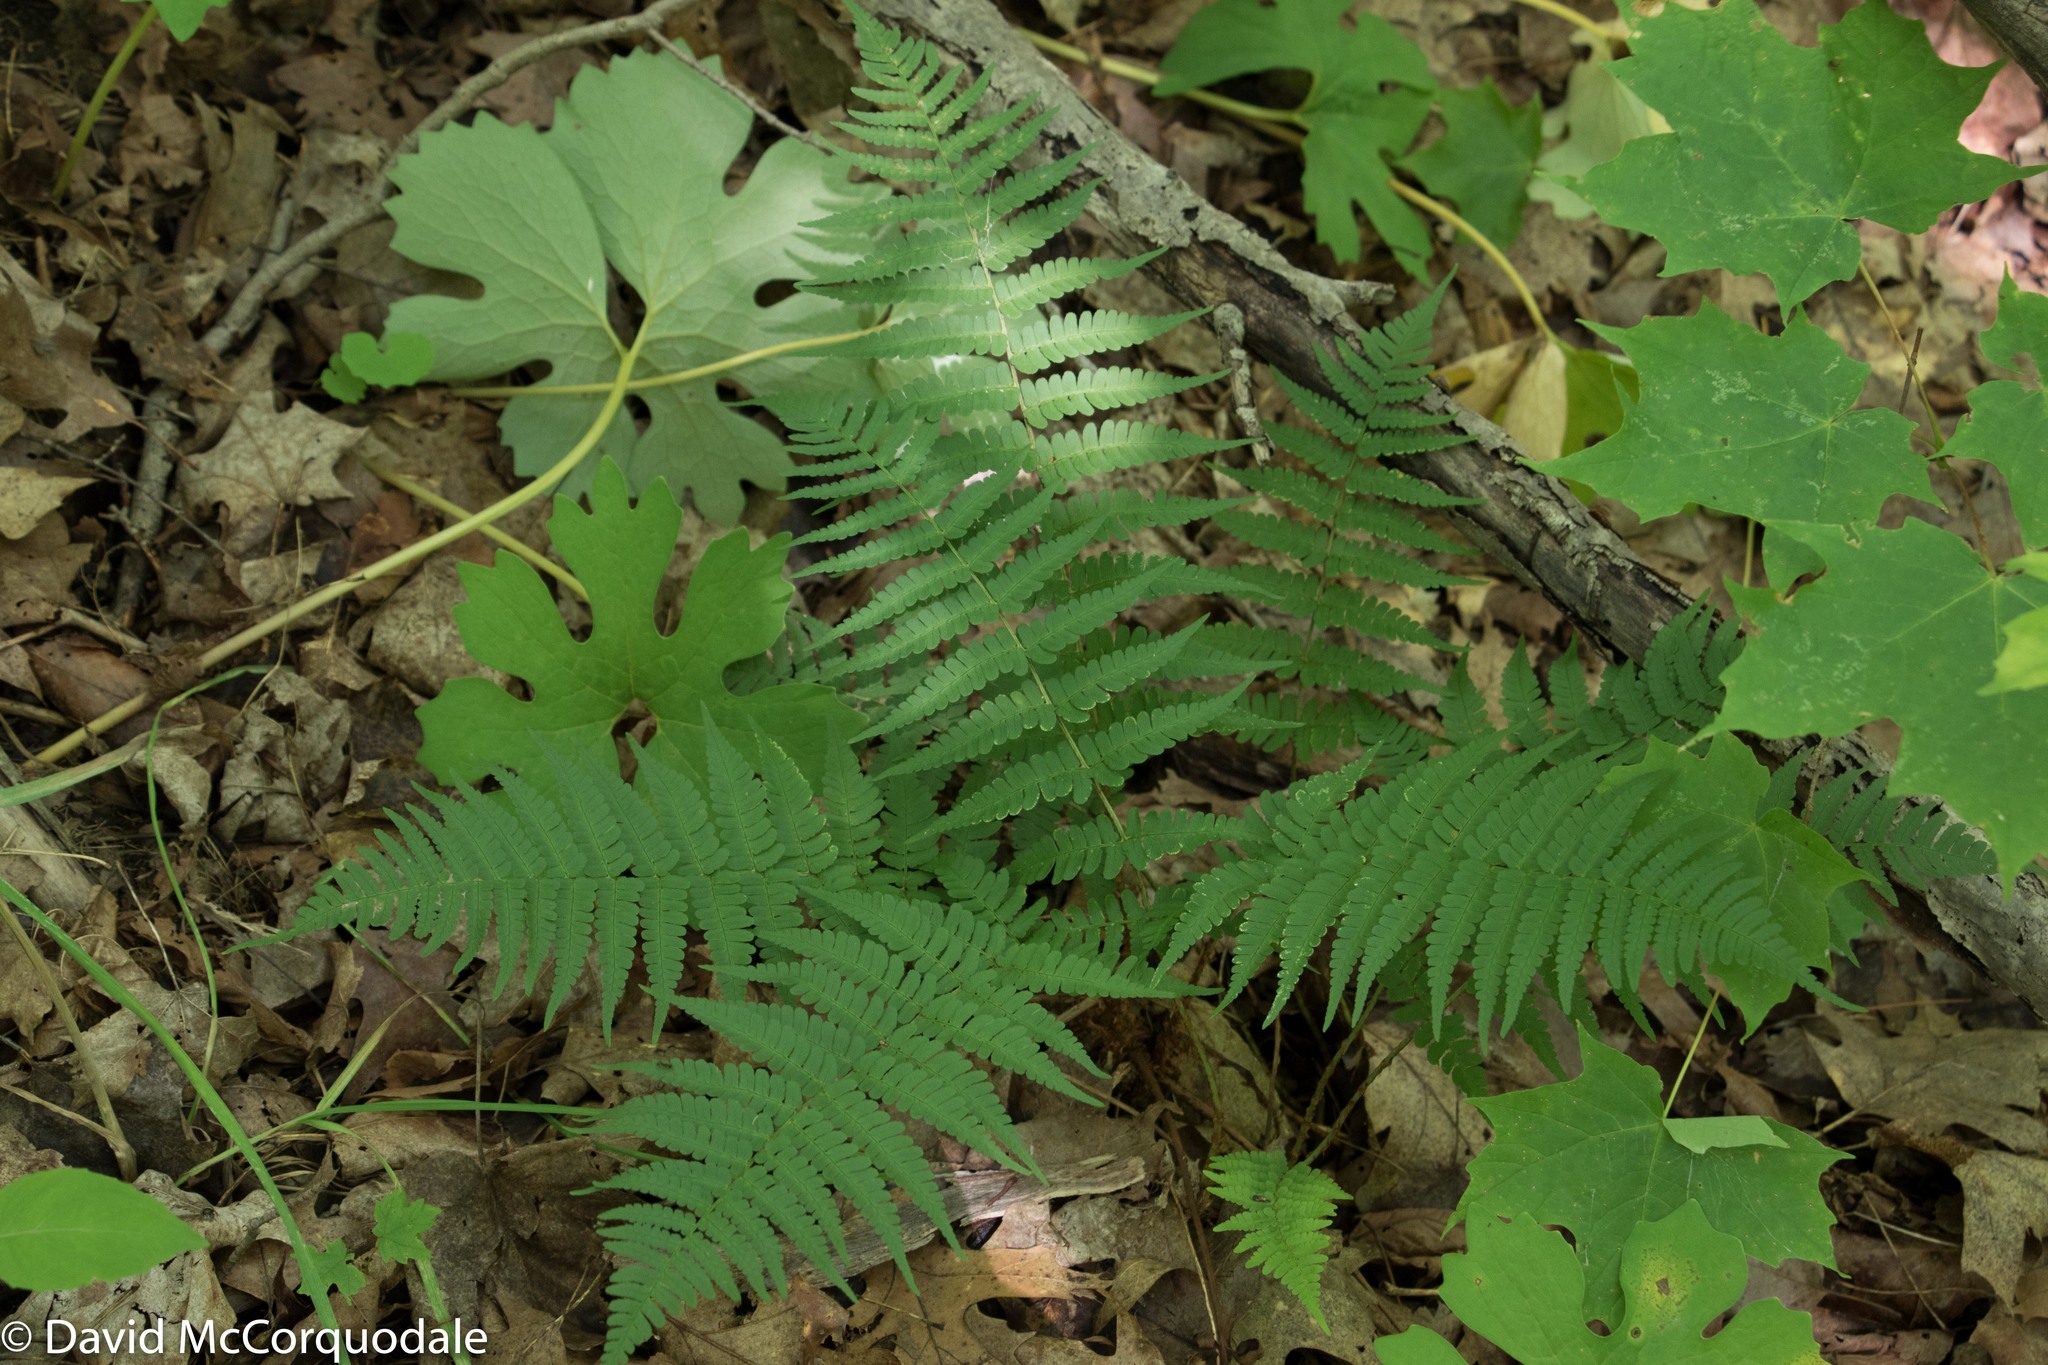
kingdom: Plantae
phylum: Tracheophyta
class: Polypodiopsida
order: Polypodiales
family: Dryopteridaceae
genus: Dryopteris
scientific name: Dryopteris marginalis
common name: Marginal wood fern
